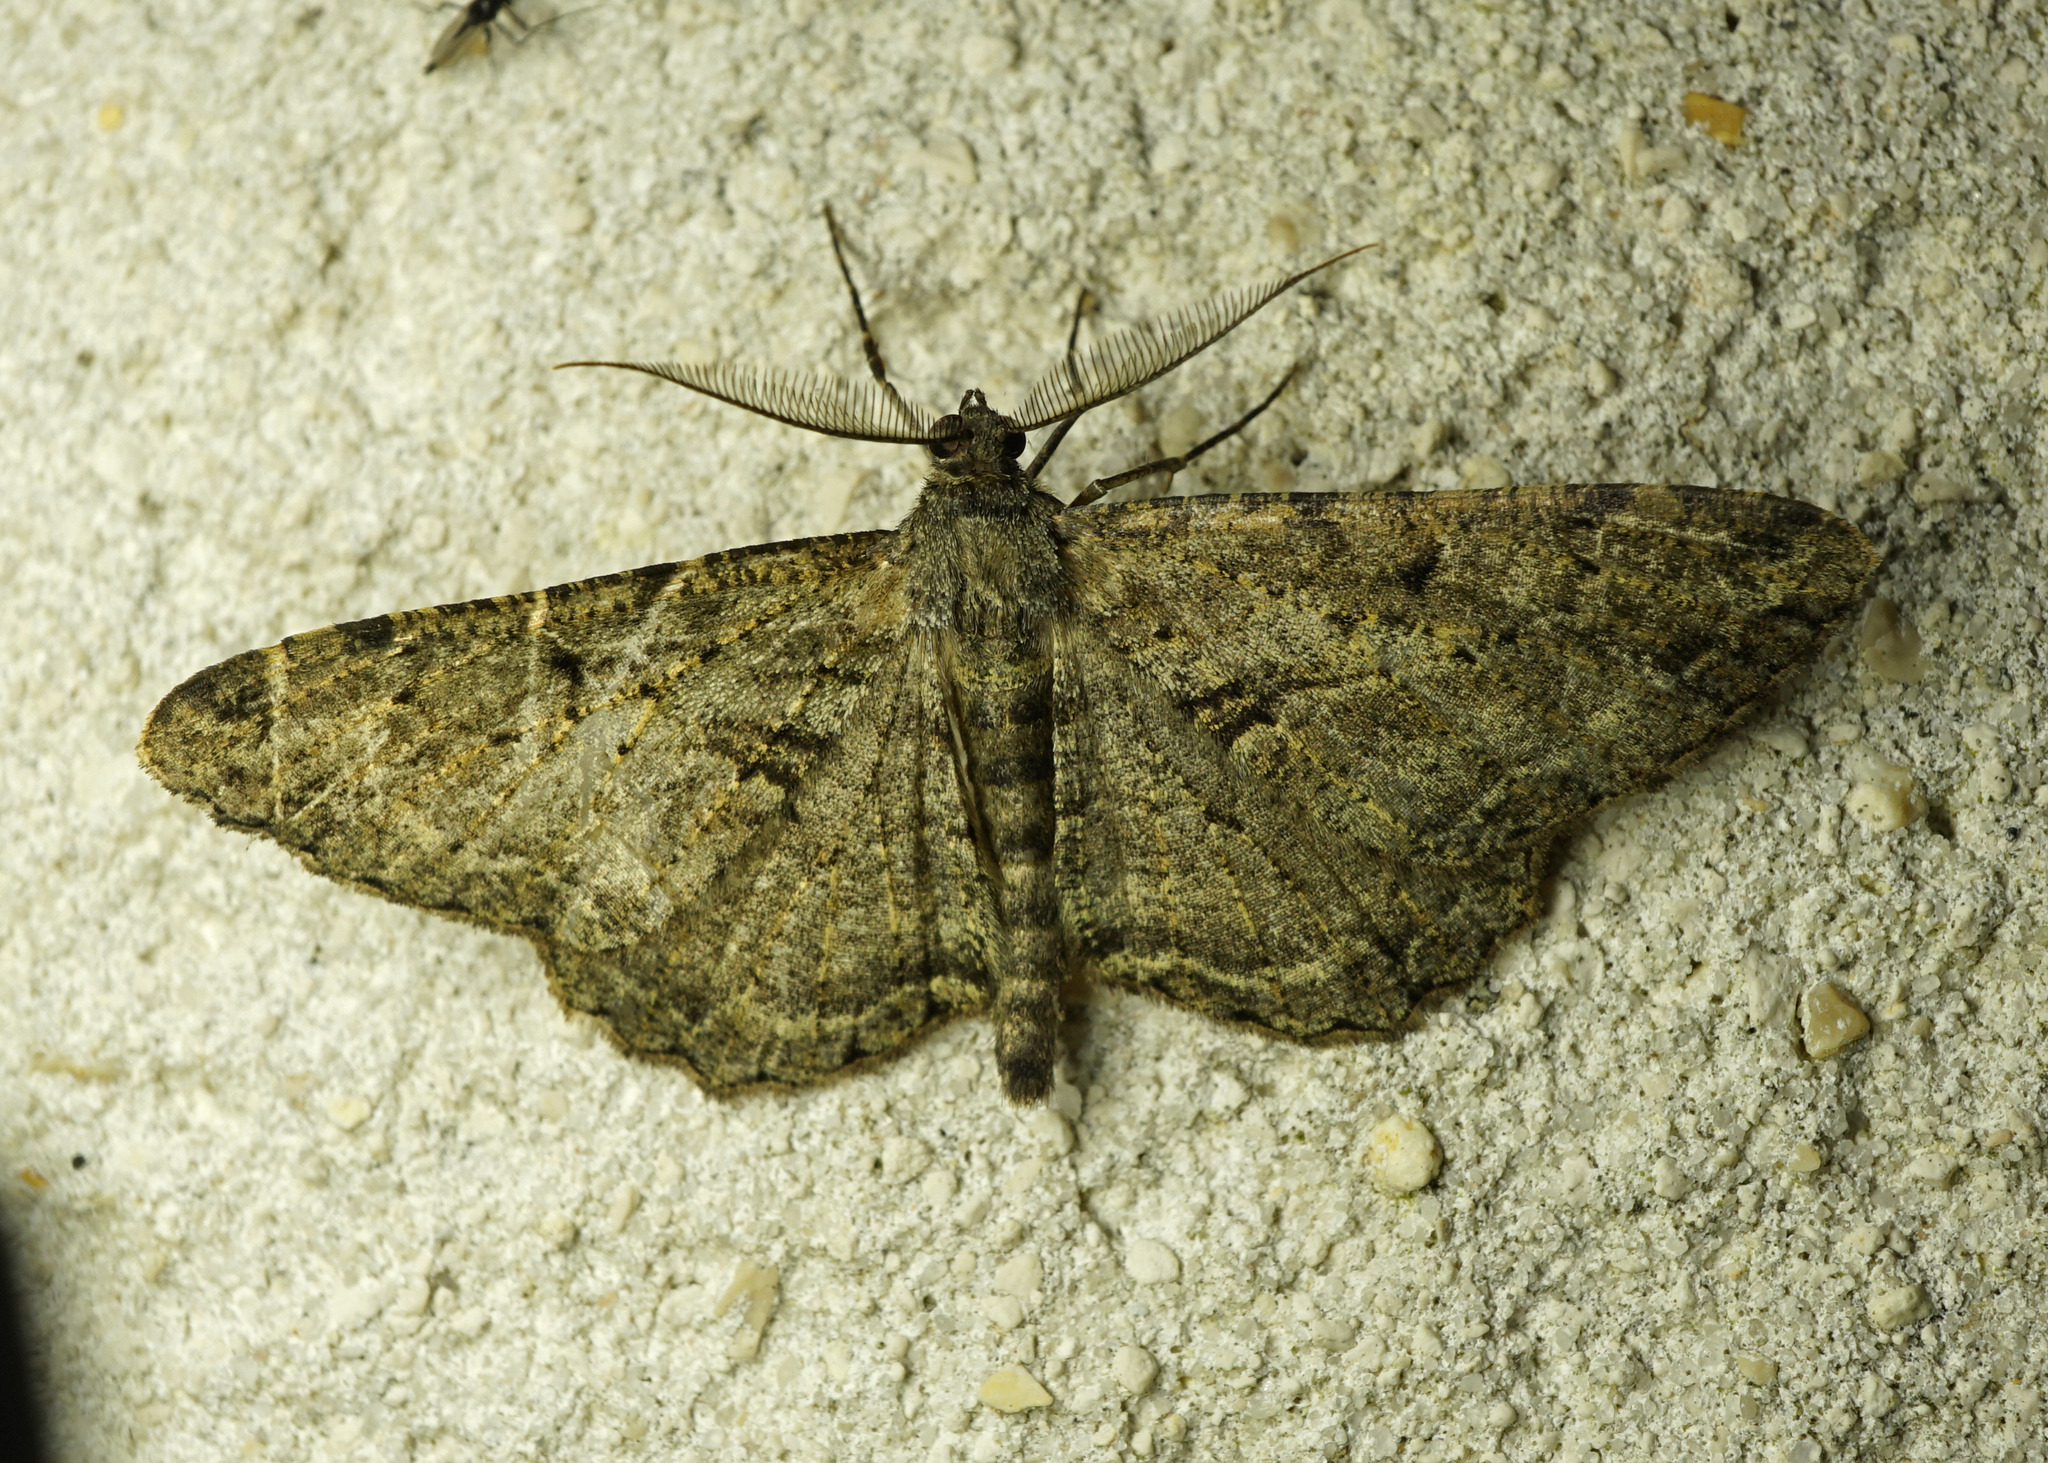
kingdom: Animalia
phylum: Arthropoda
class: Insecta
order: Lepidoptera
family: Geometridae
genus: Peribatodes
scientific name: Peribatodes rhomboidaria
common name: Willow beauty
